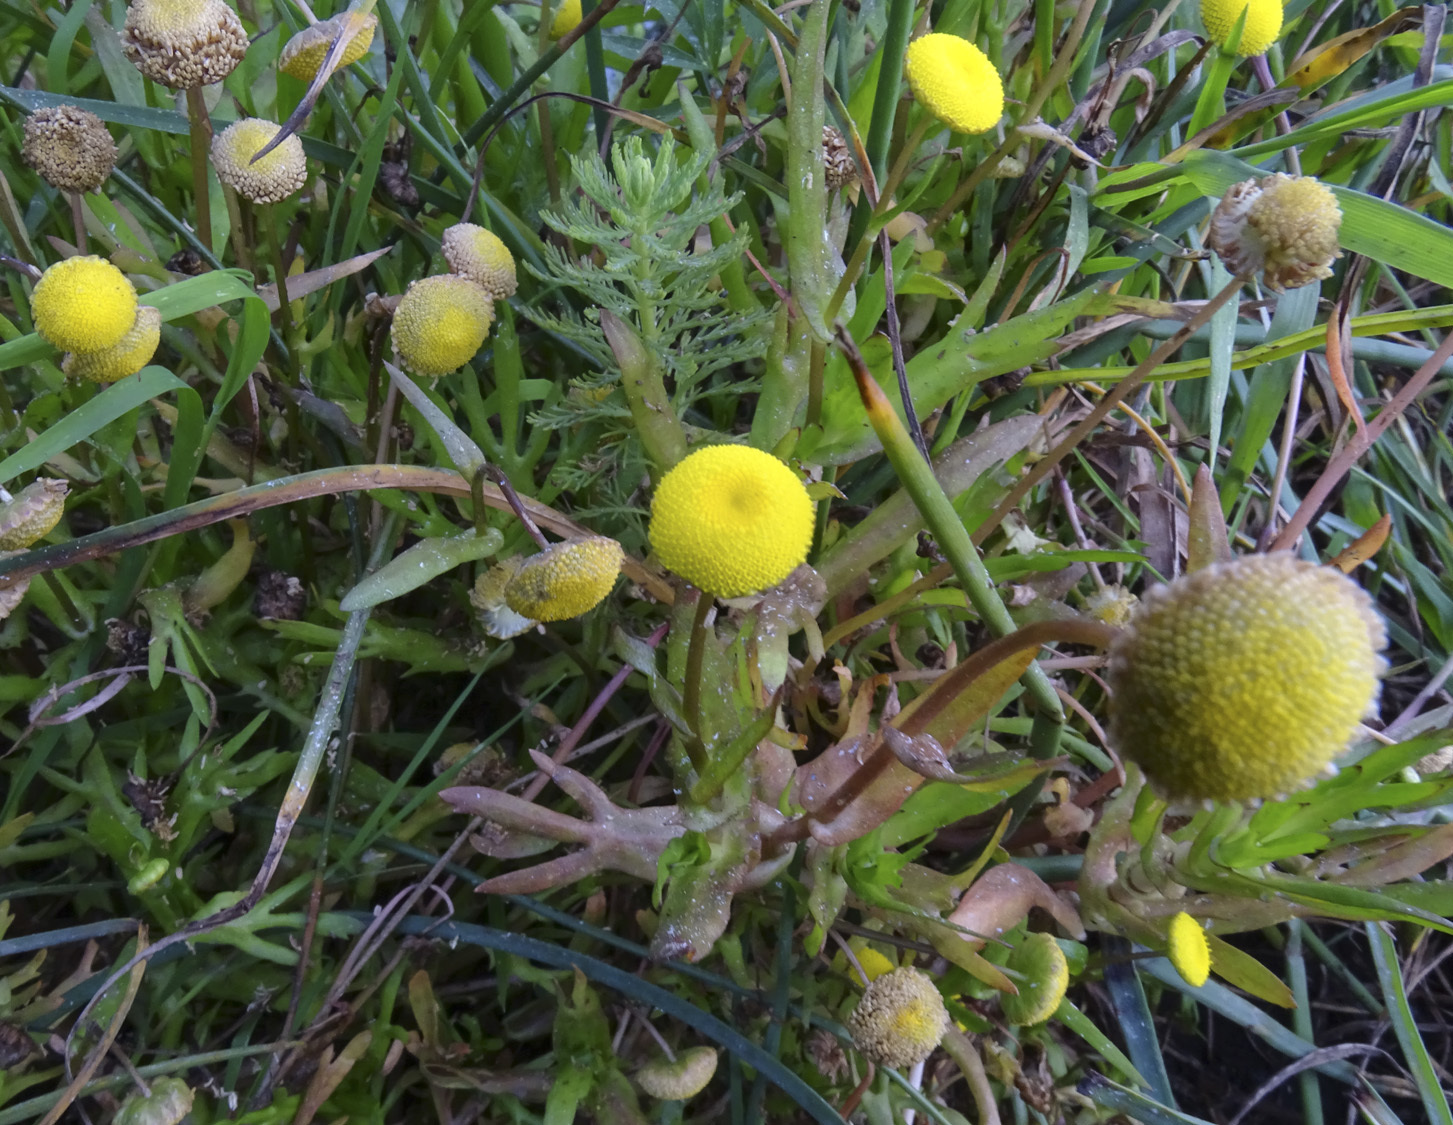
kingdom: Plantae
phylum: Tracheophyta
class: Magnoliopsida
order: Asterales
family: Asteraceae
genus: Cotula
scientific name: Cotula coronopifolia
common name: Buttonweed
